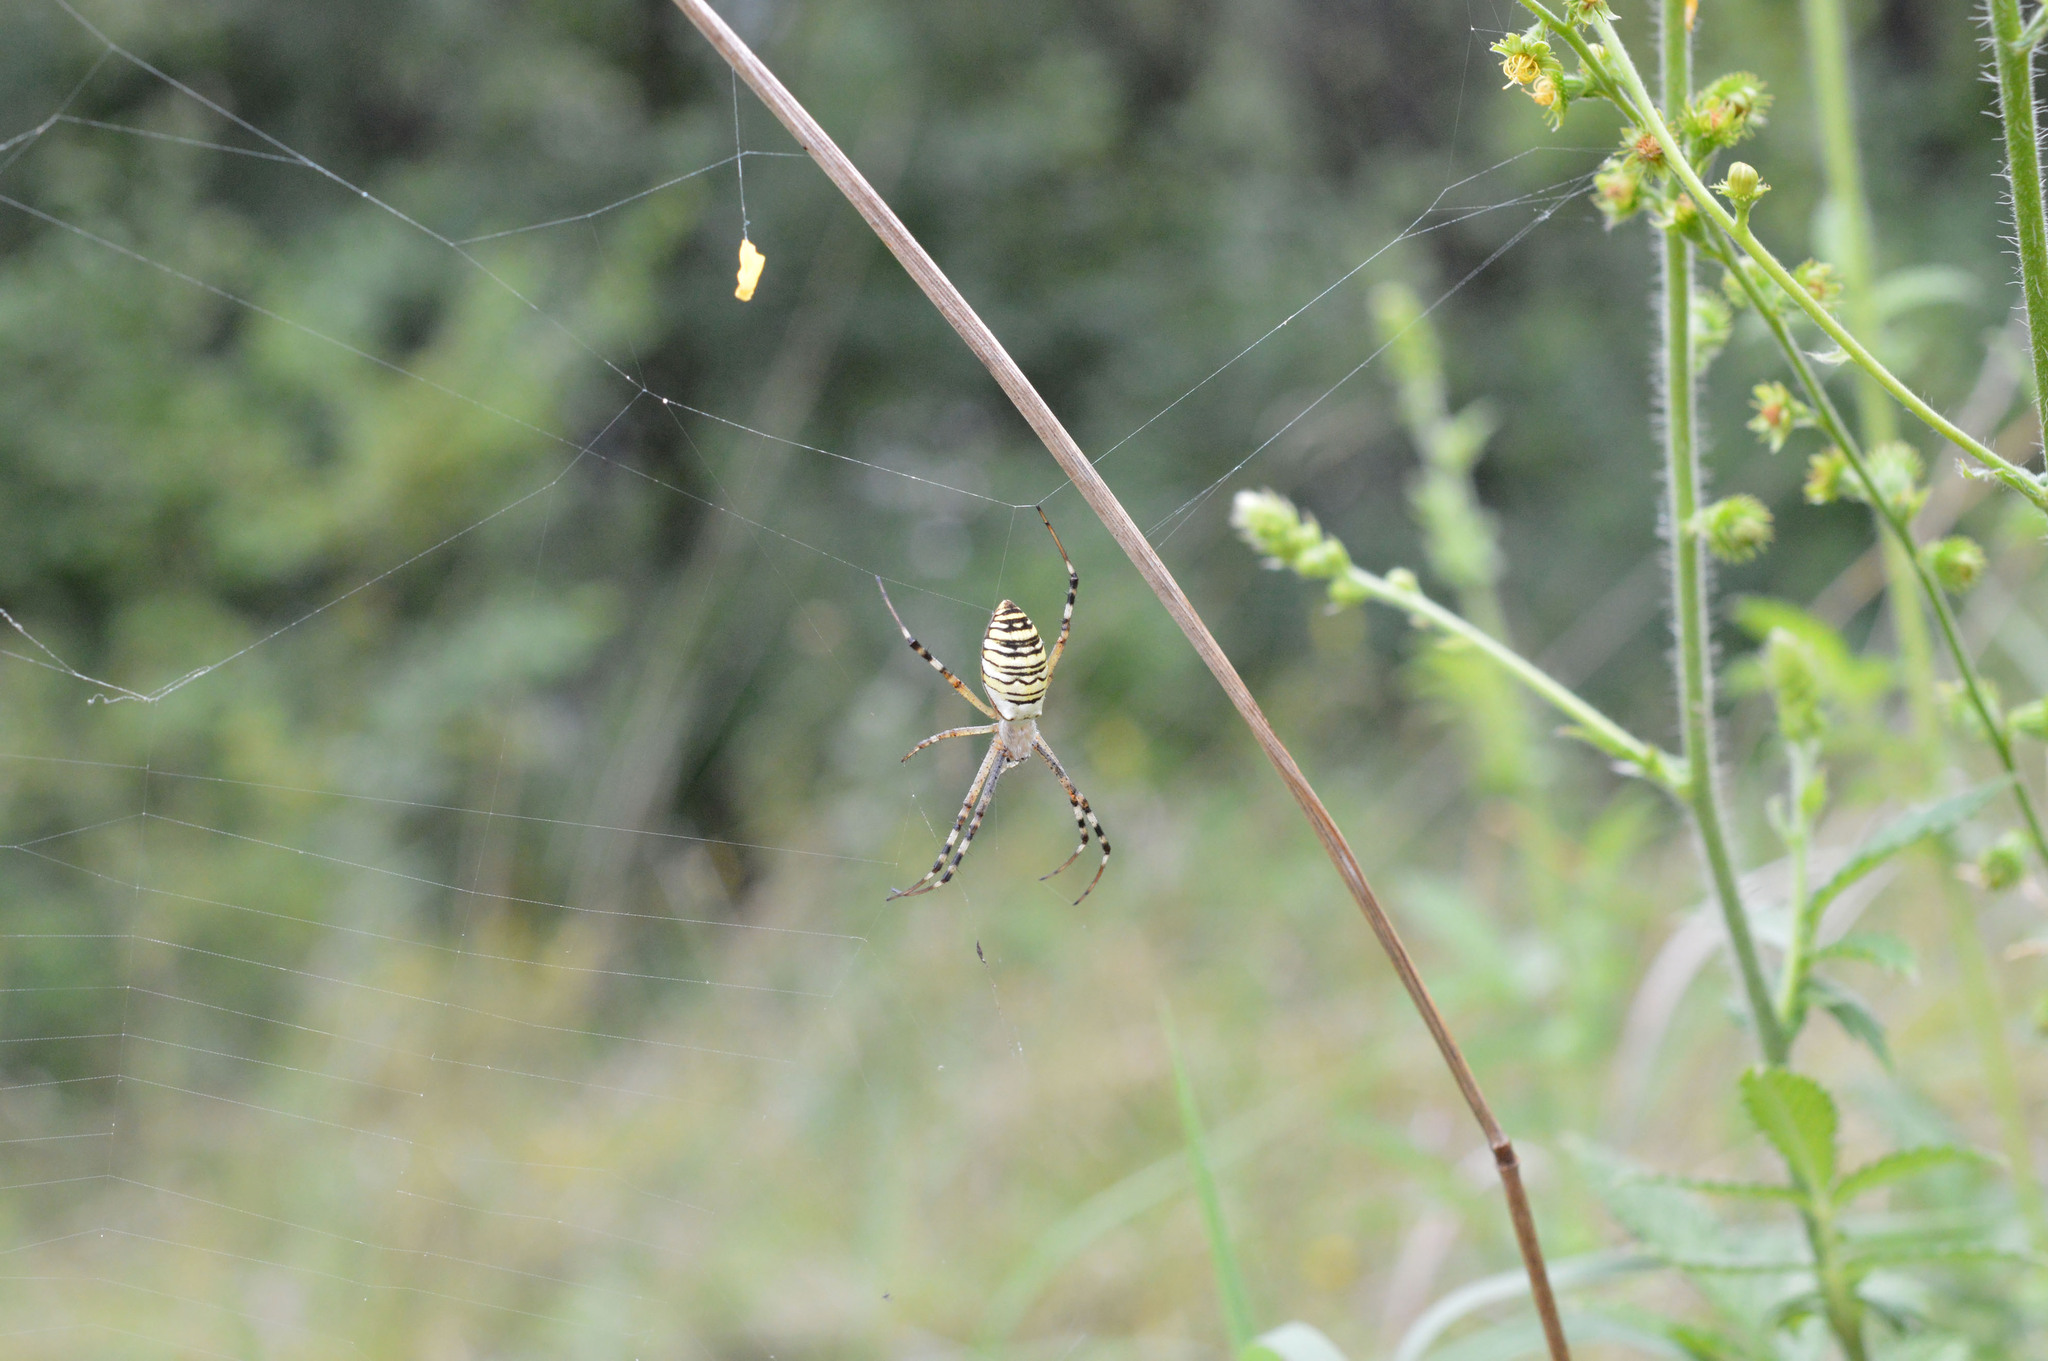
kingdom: Animalia
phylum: Arthropoda
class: Arachnida
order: Araneae
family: Araneidae
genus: Argiope
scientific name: Argiope bruennichi
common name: Wasp spider
